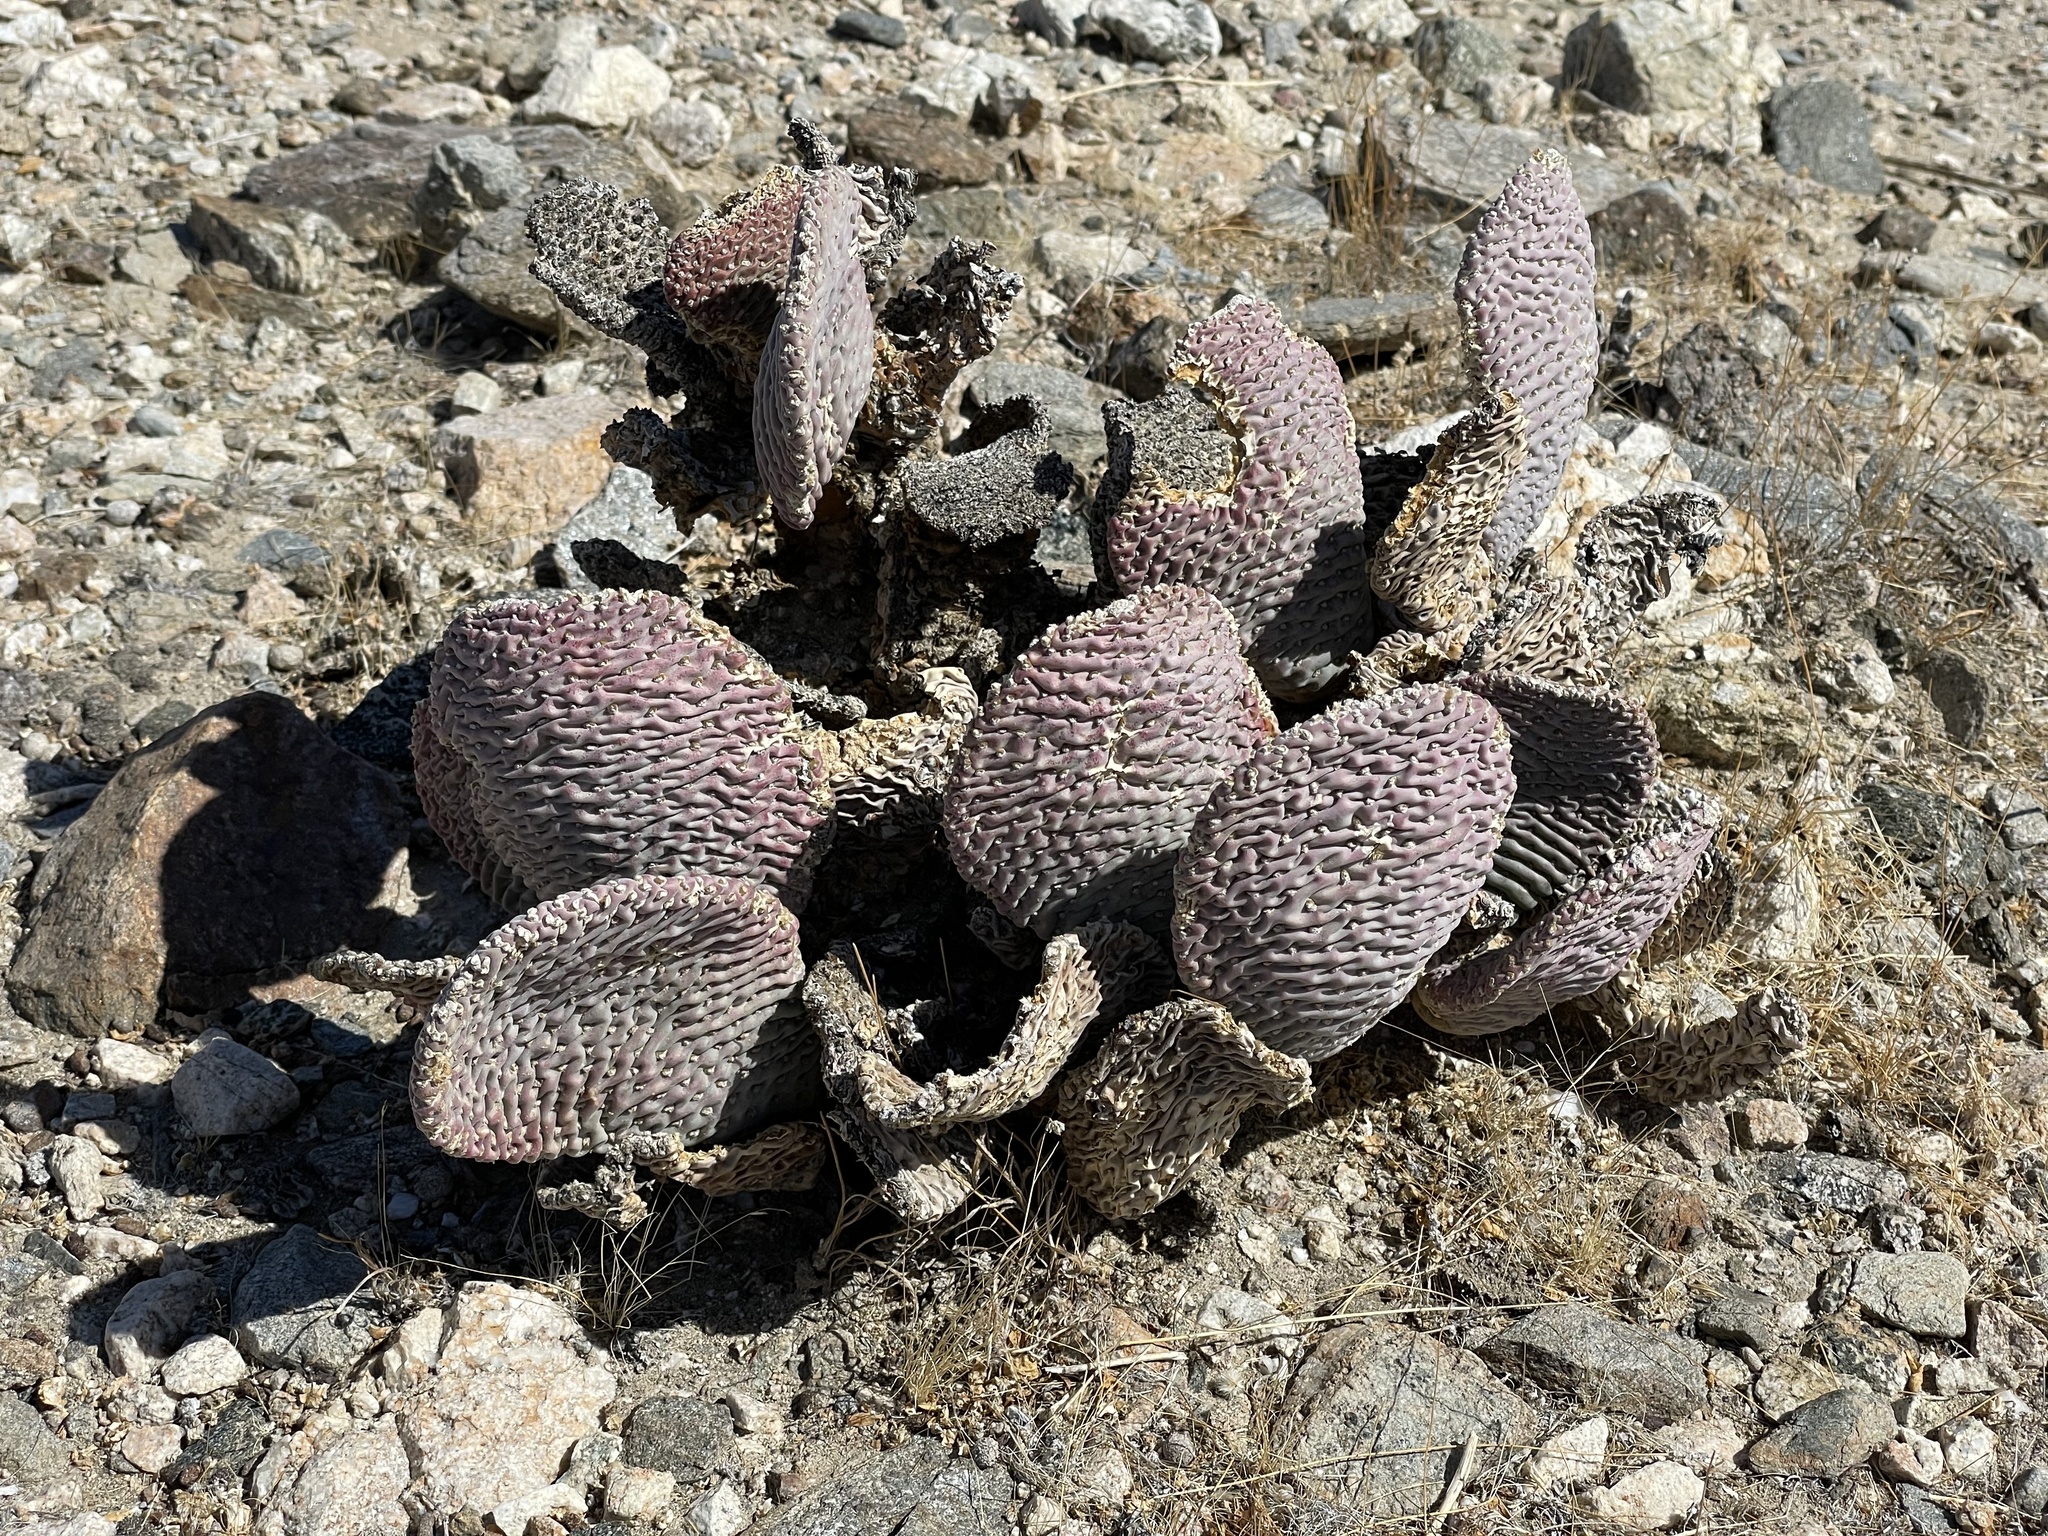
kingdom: Plantae
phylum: Tracheophyta
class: Magnoliopsida
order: Caryophyllales
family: Cactaceae
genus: Opuntia
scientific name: Opuntia basilaris
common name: Beavertail prickly-pear
